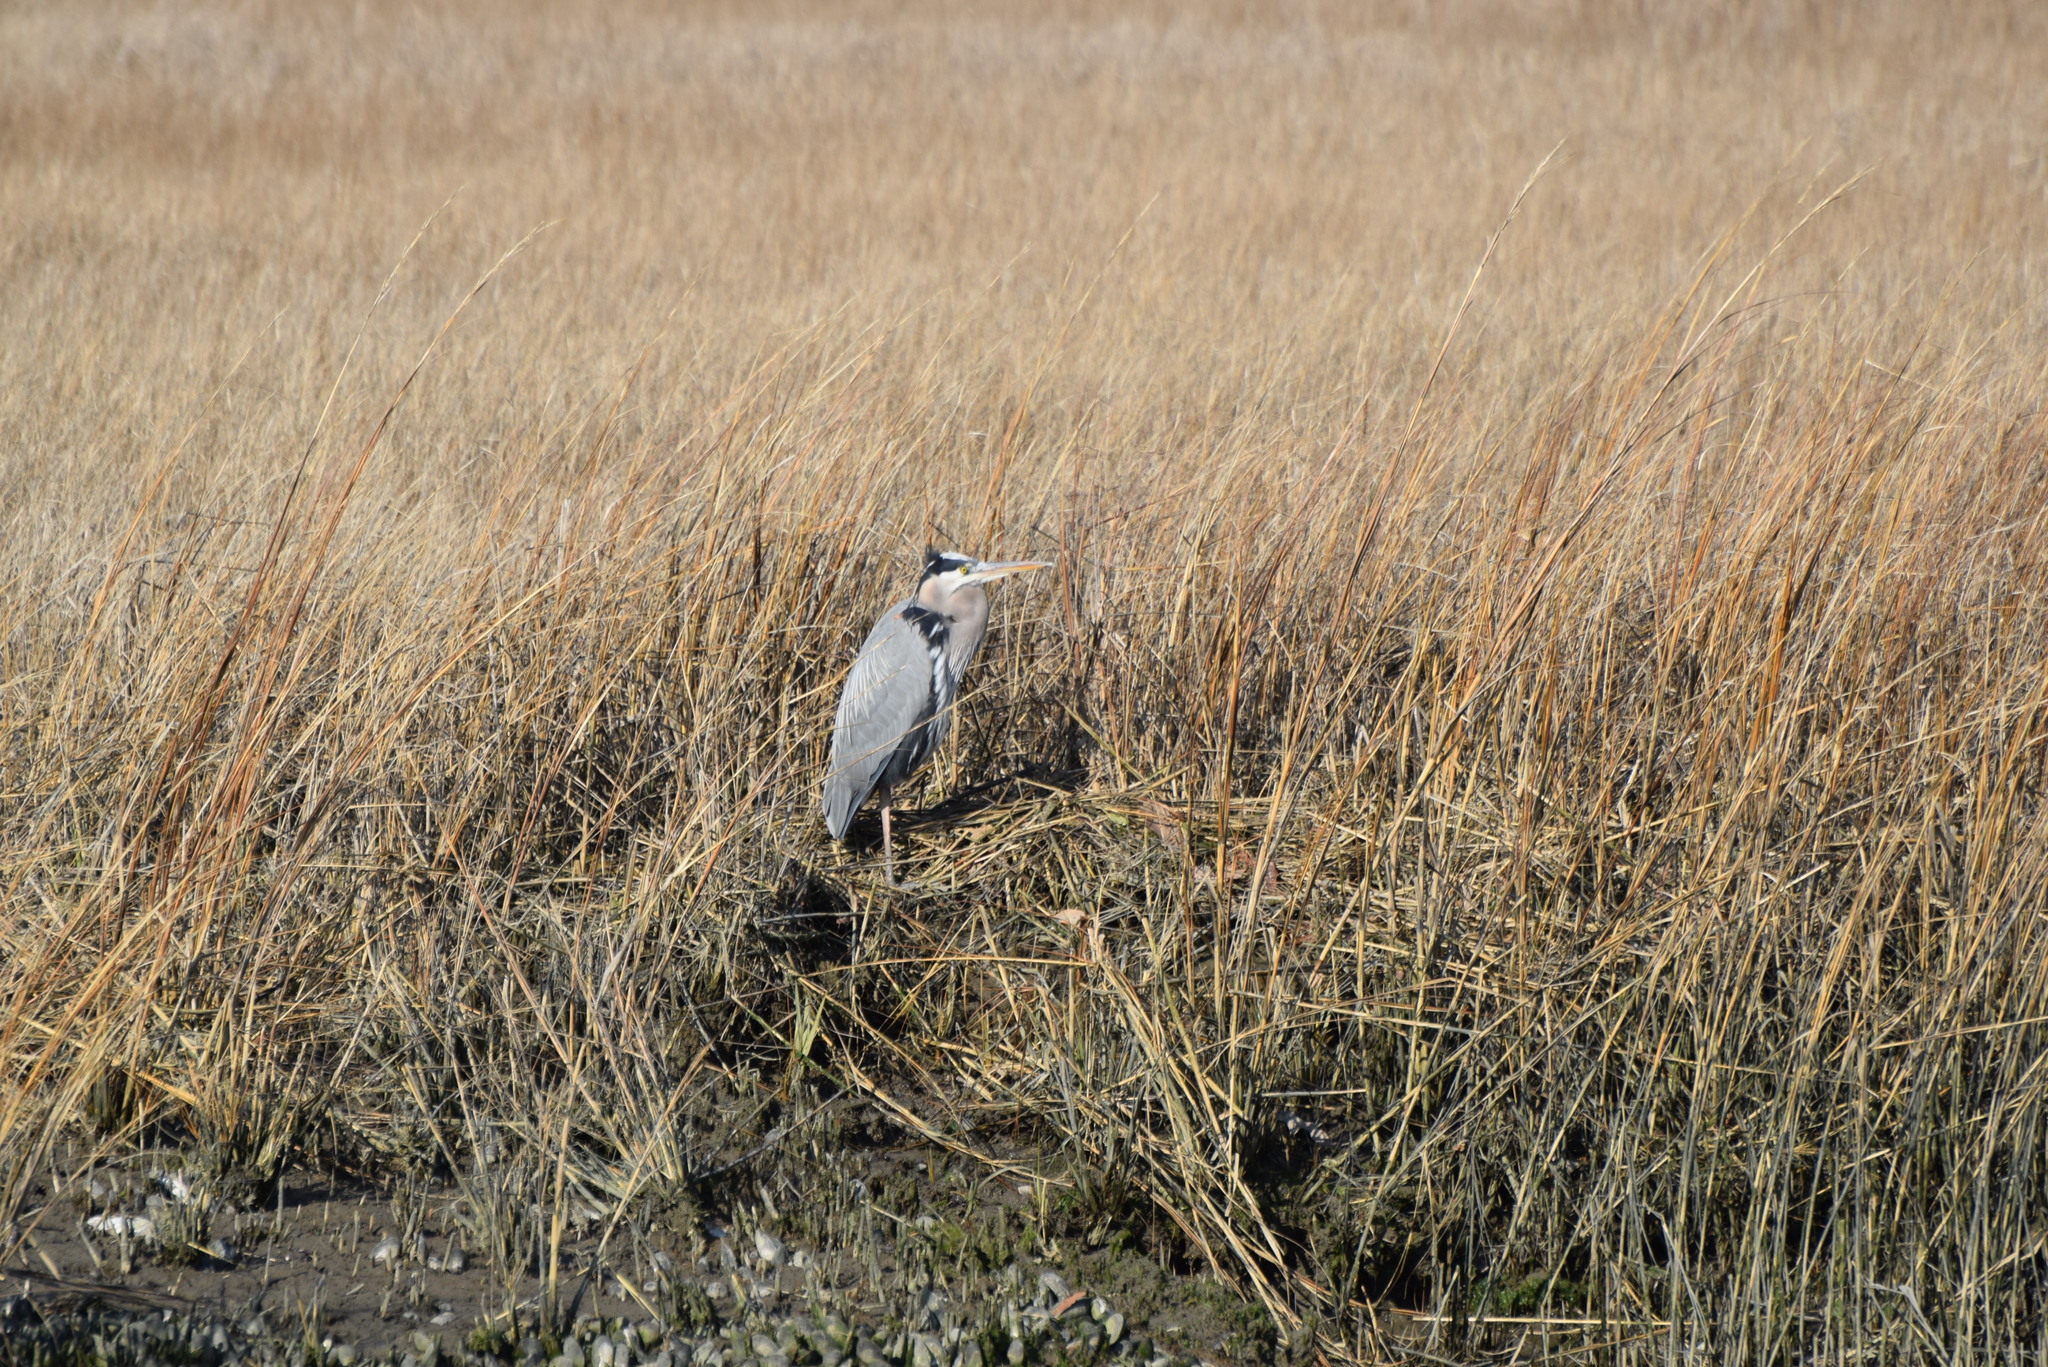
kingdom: Animalia
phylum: Chordata
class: Aves
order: Pelecaniformes
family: Ardeidae
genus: Ardea
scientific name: Ardea herodias
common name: Great blue heron
